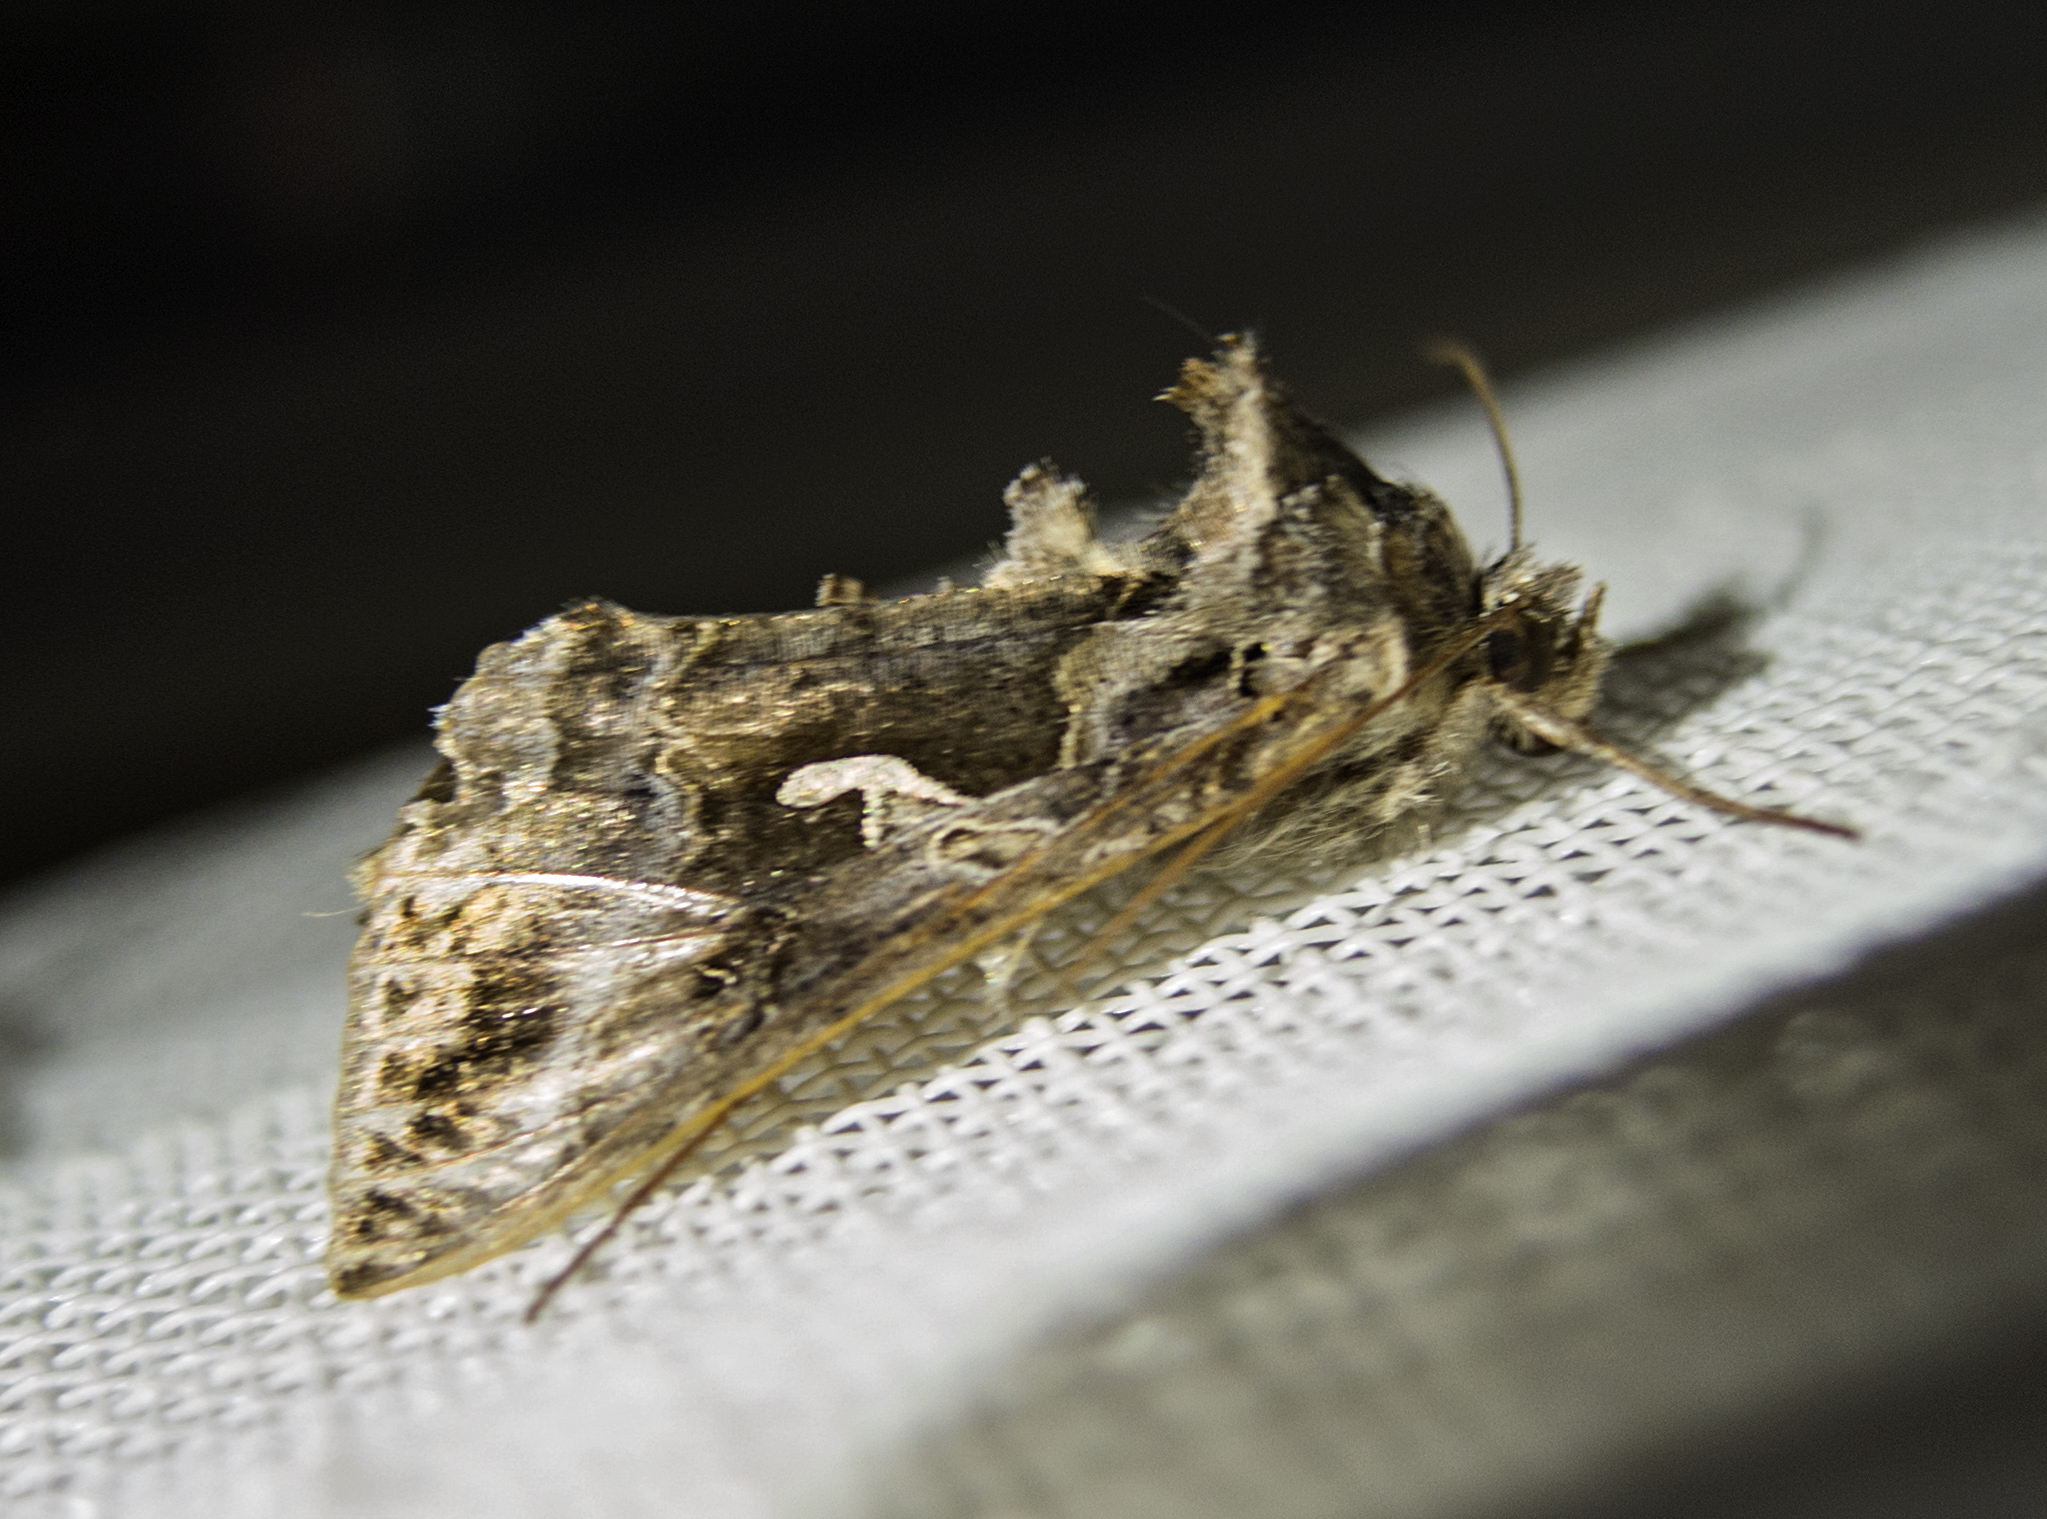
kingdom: Animalia
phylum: Arthropoda
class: Insecta
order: Lepidoptera
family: Noctuidae
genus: Autographa
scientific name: Autographa gamma
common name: Silver y
